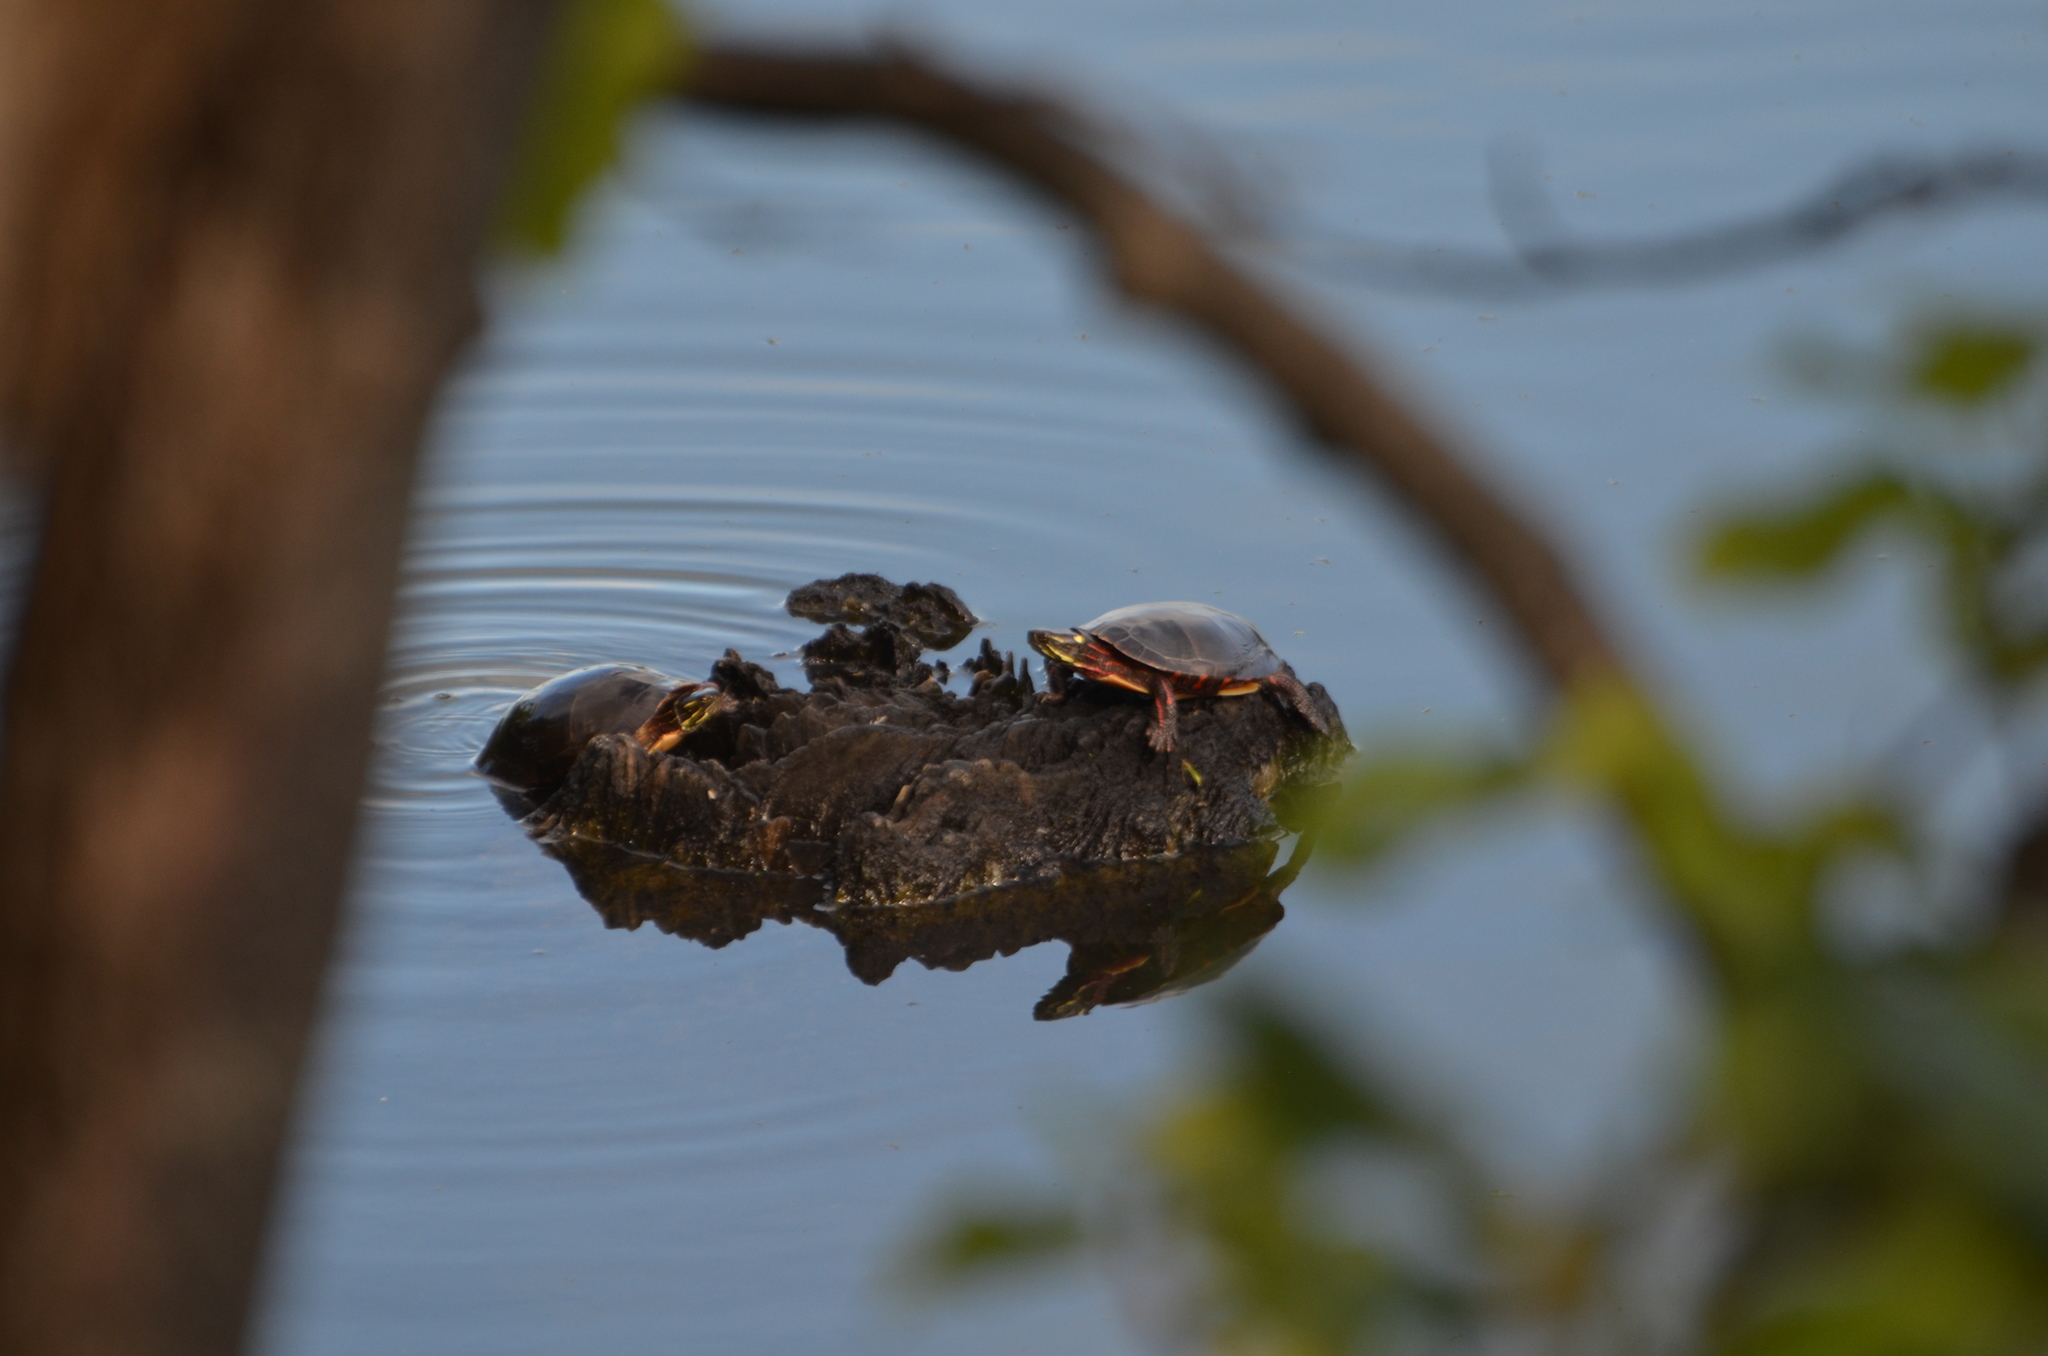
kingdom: Animalia
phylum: Chordata
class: Testudines
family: Emydidae
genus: Chrysemys
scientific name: Chrysemys picta
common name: Painted turtle
